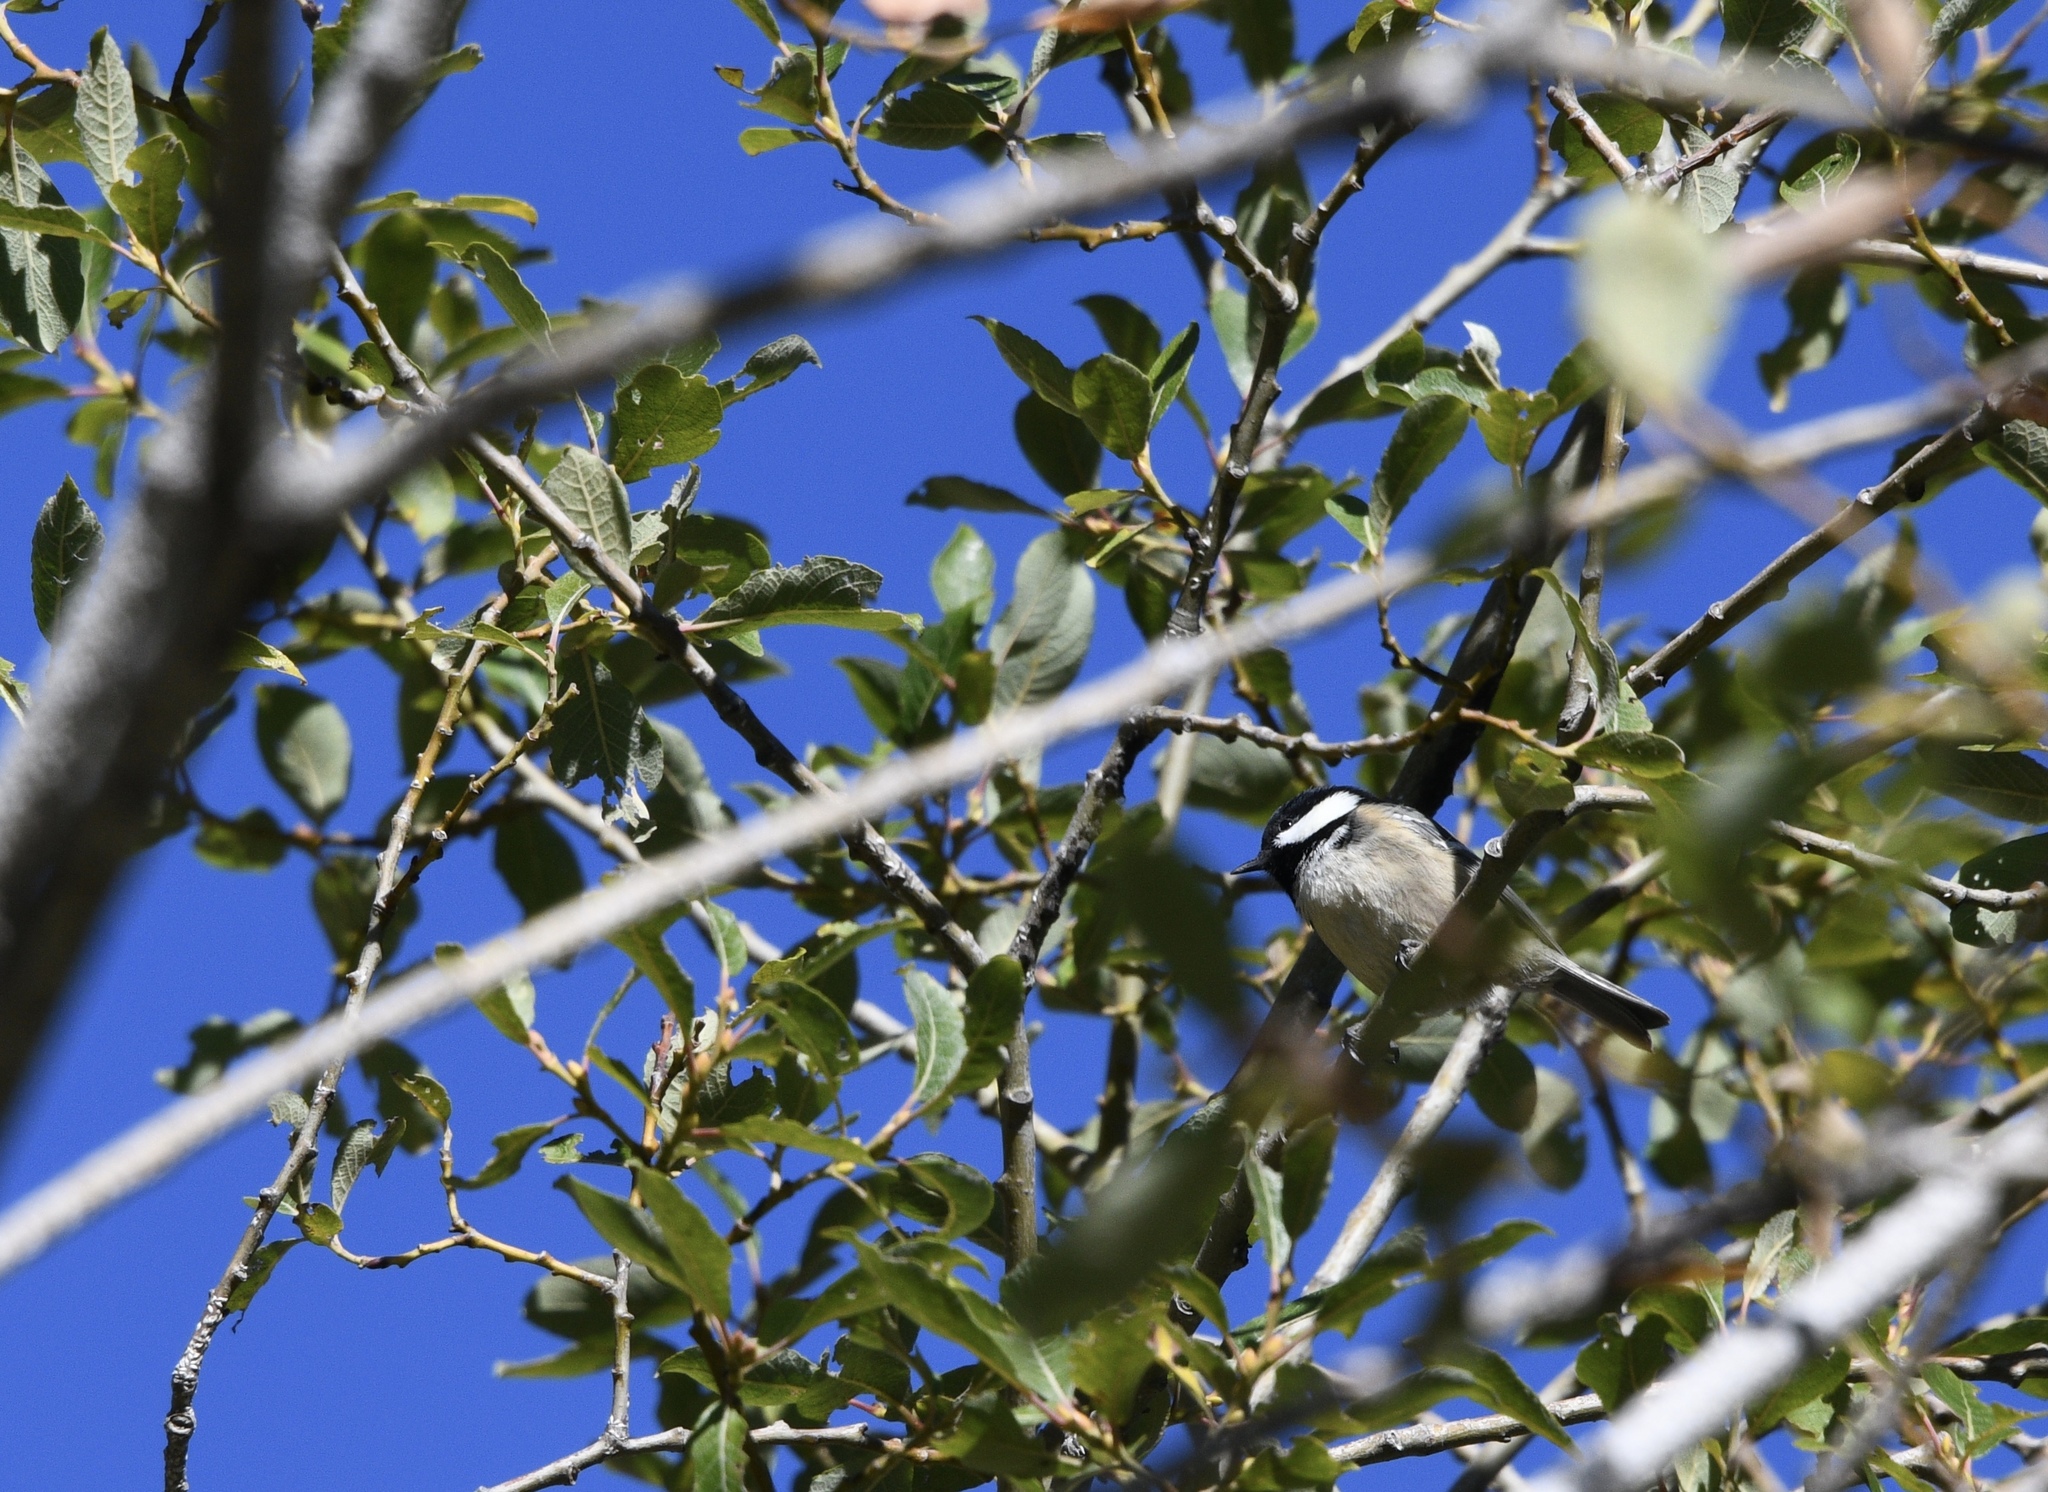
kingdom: Animalia
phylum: Chordata
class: Aves
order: Passeriformes
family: Paridae
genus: Periparus
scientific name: Periparus ater
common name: Coal tit
